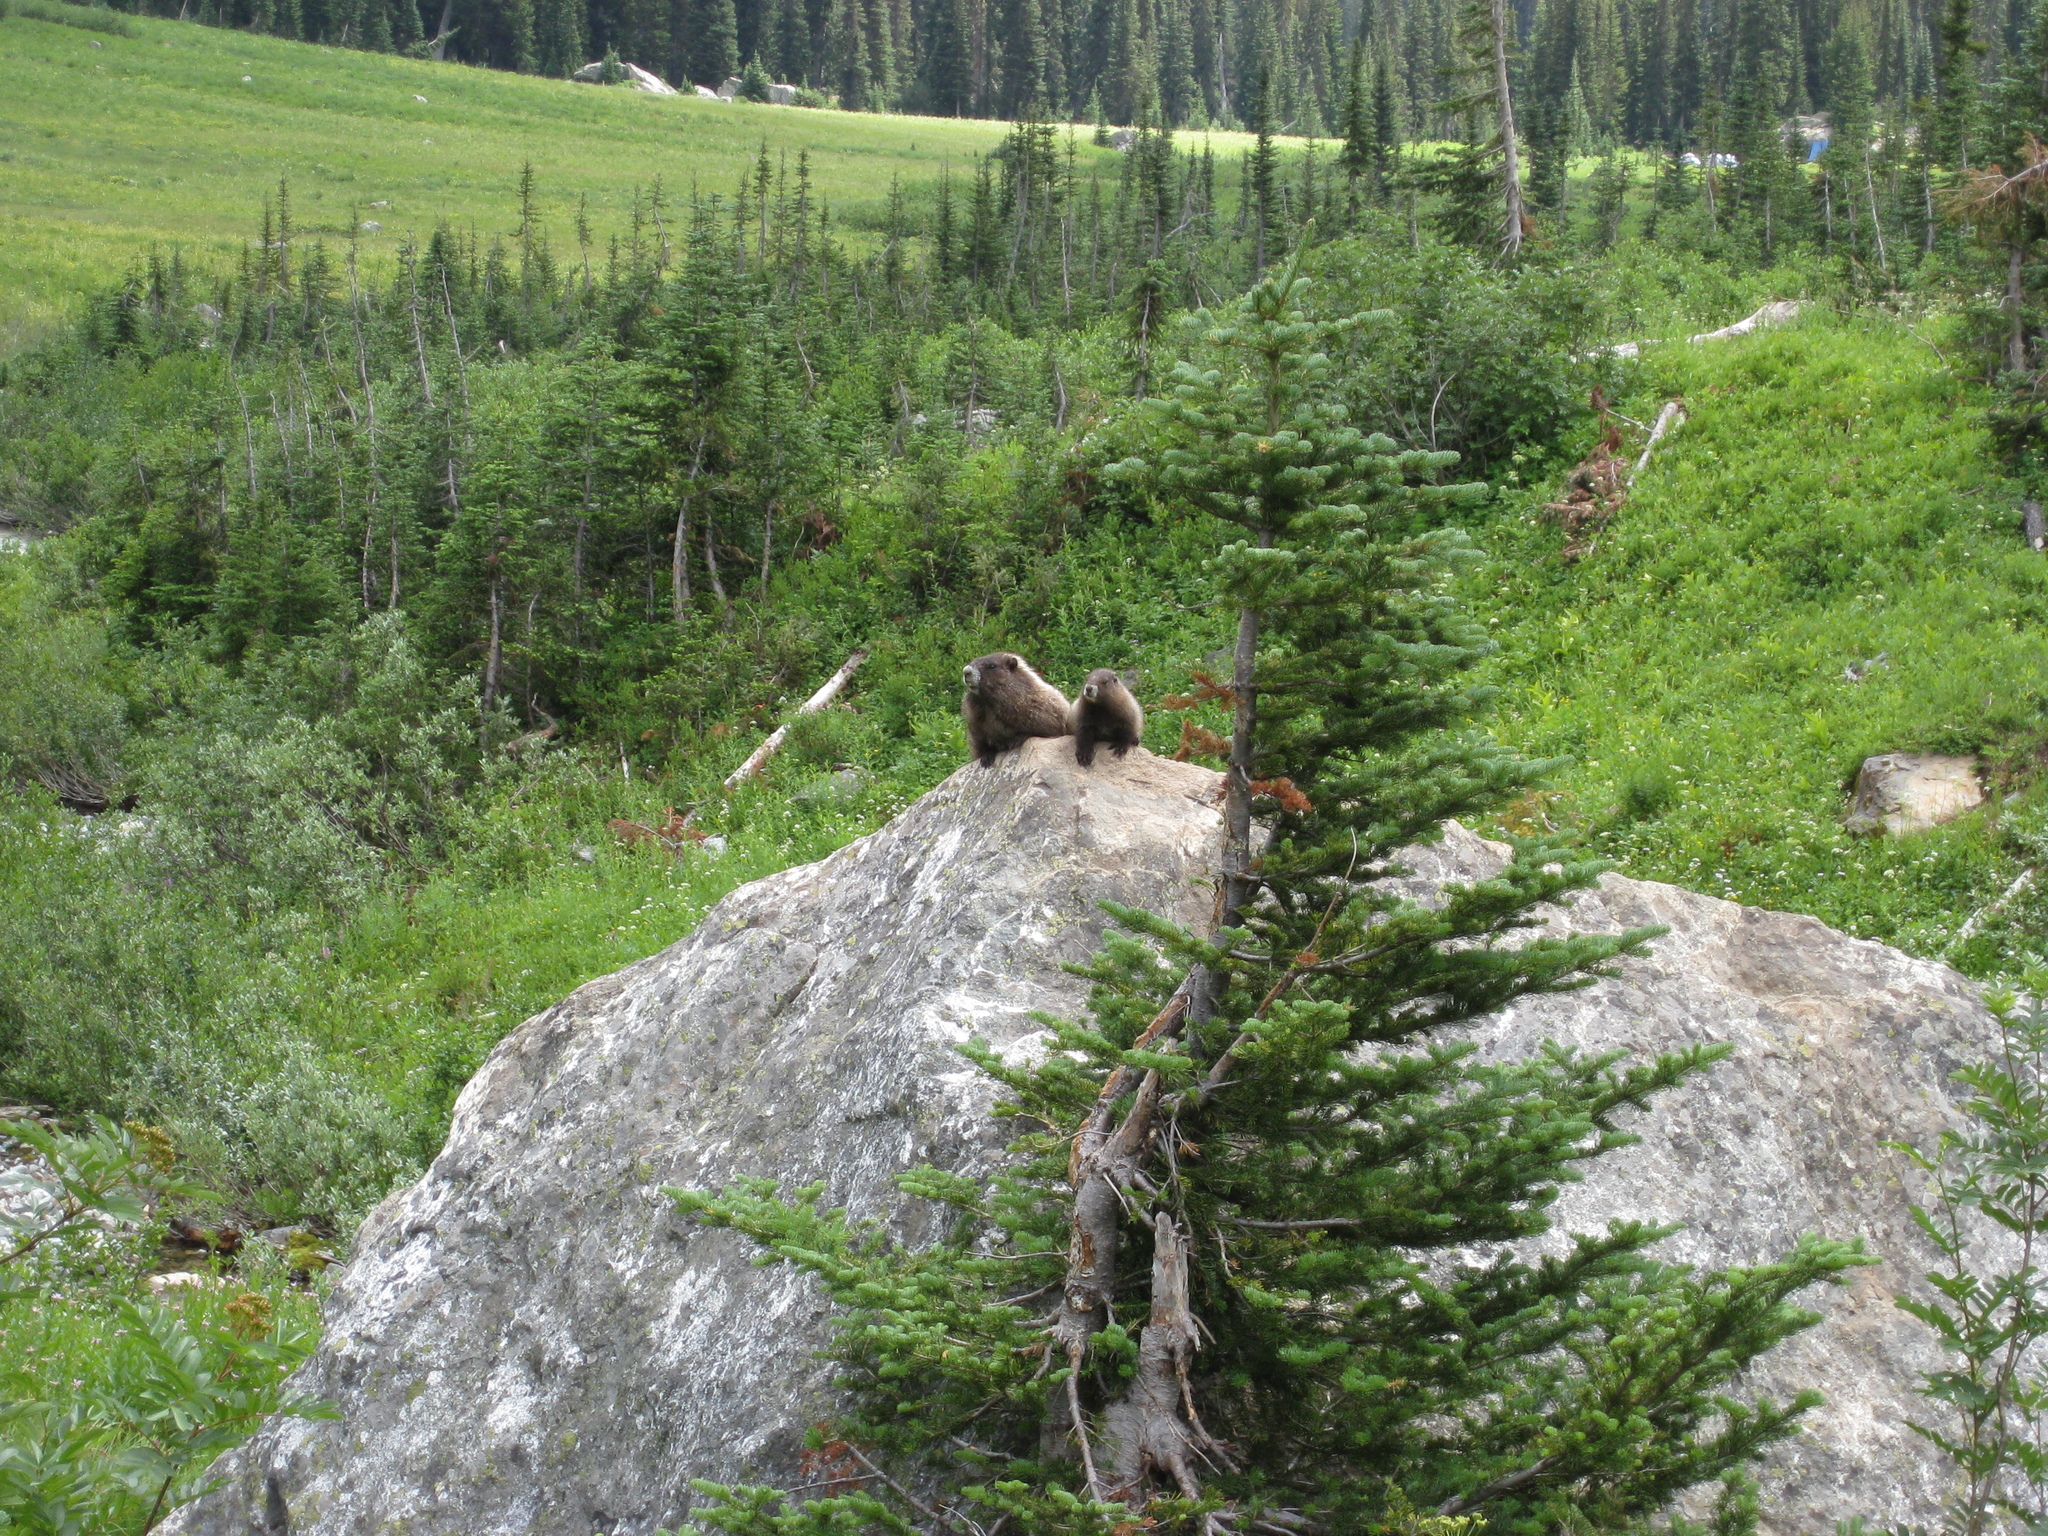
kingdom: Animalia
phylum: Chordata
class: Mammalia
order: Rodentia
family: Sciuridae
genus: Marmota
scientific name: Marmota caligata
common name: Hoary marmot
